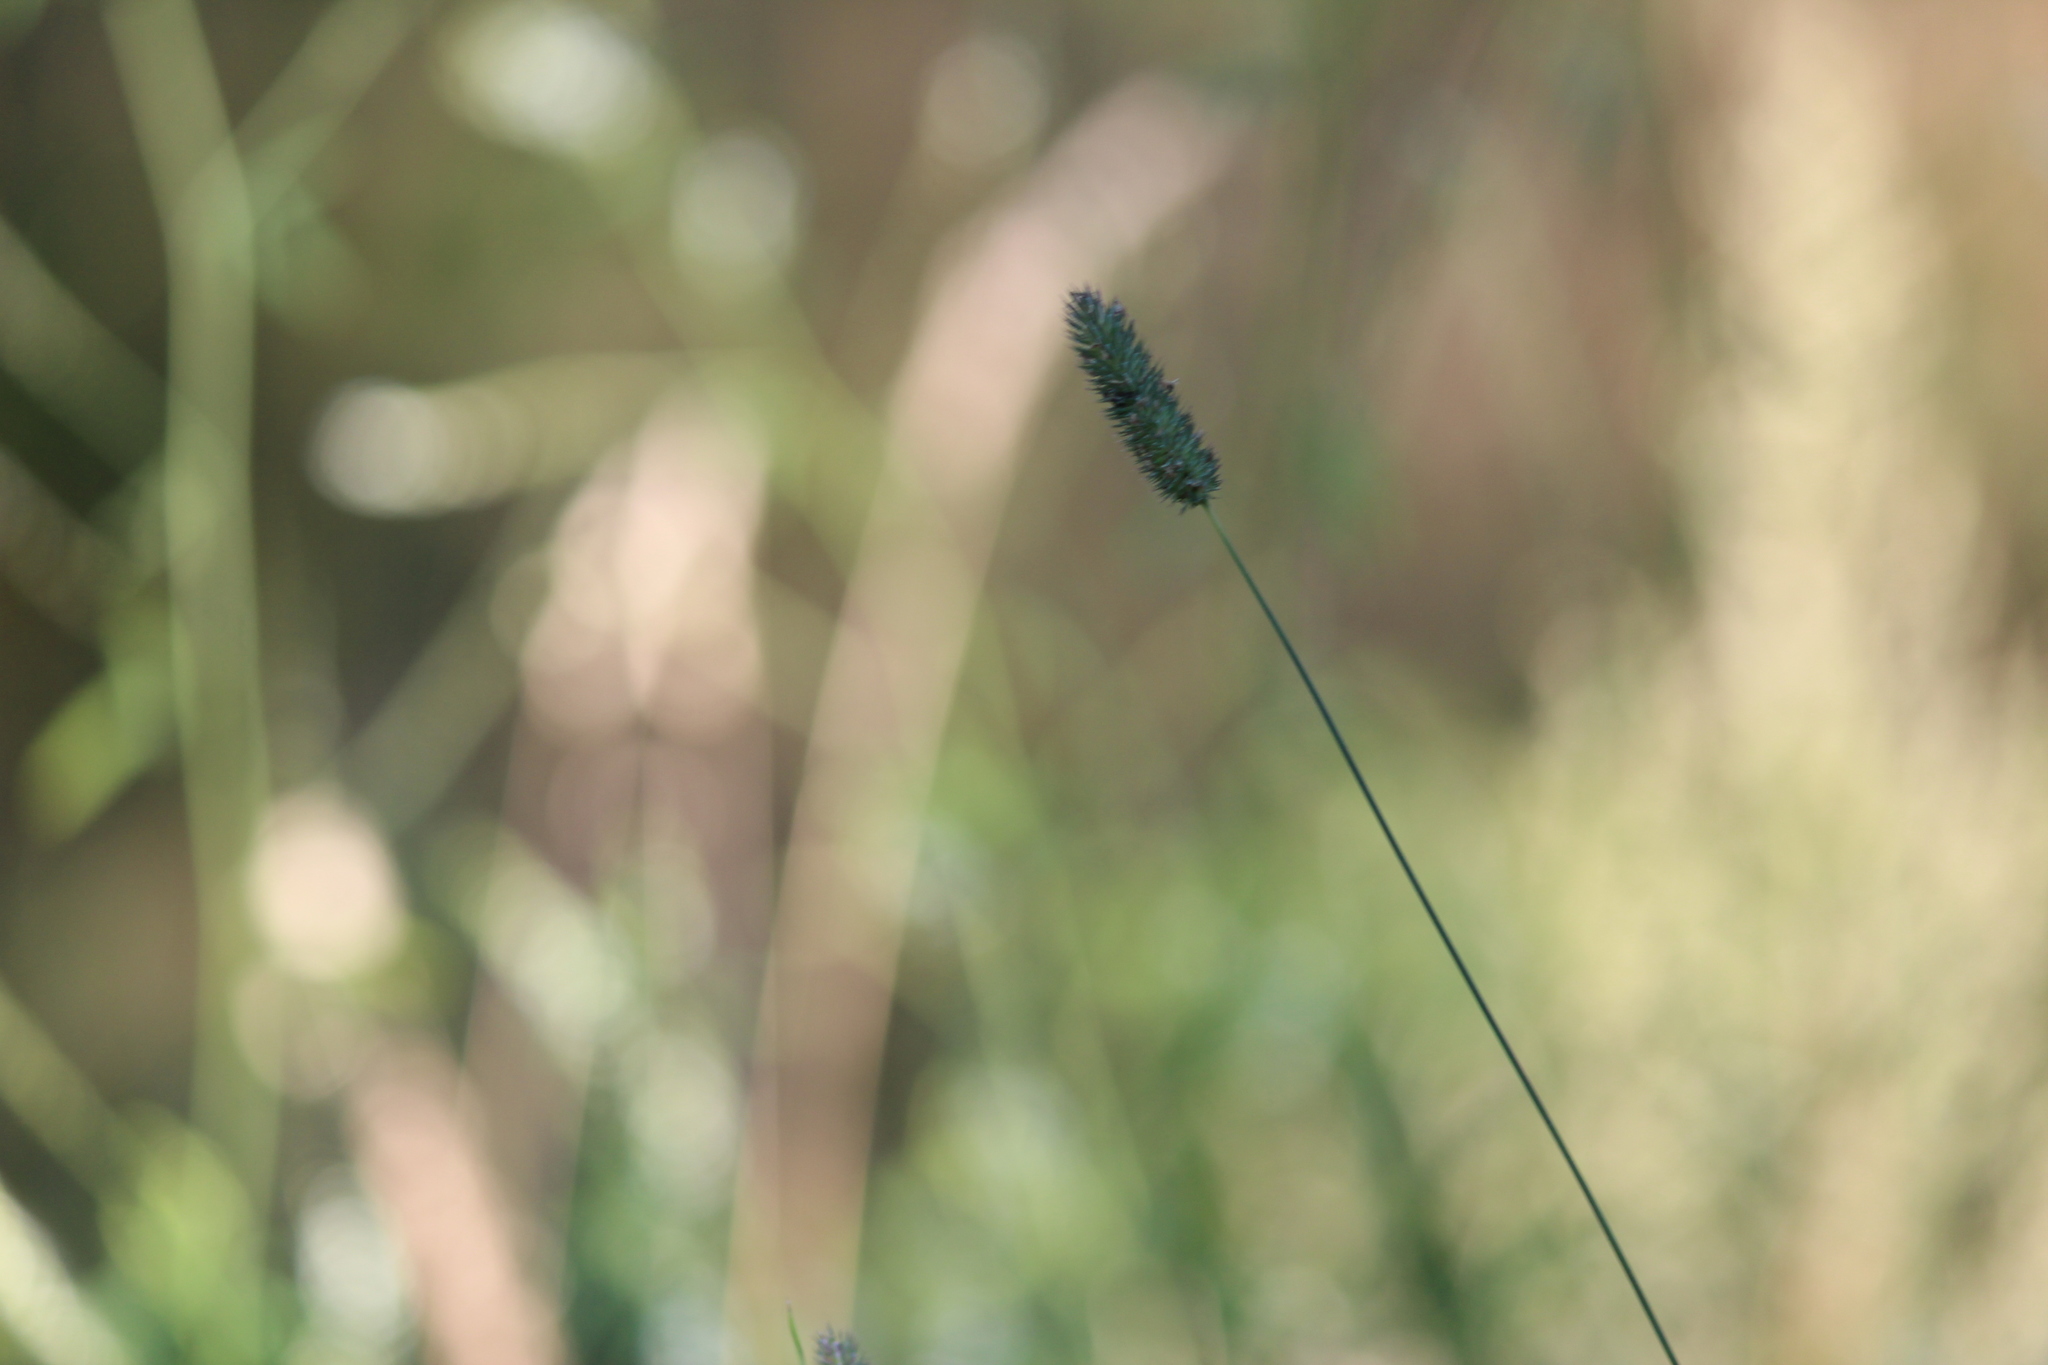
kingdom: Plantae
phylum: Tracheophyta
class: Liliopsida
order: Poales
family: Poaceae
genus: Phleum
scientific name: Phleum pratense
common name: Timothy grass
